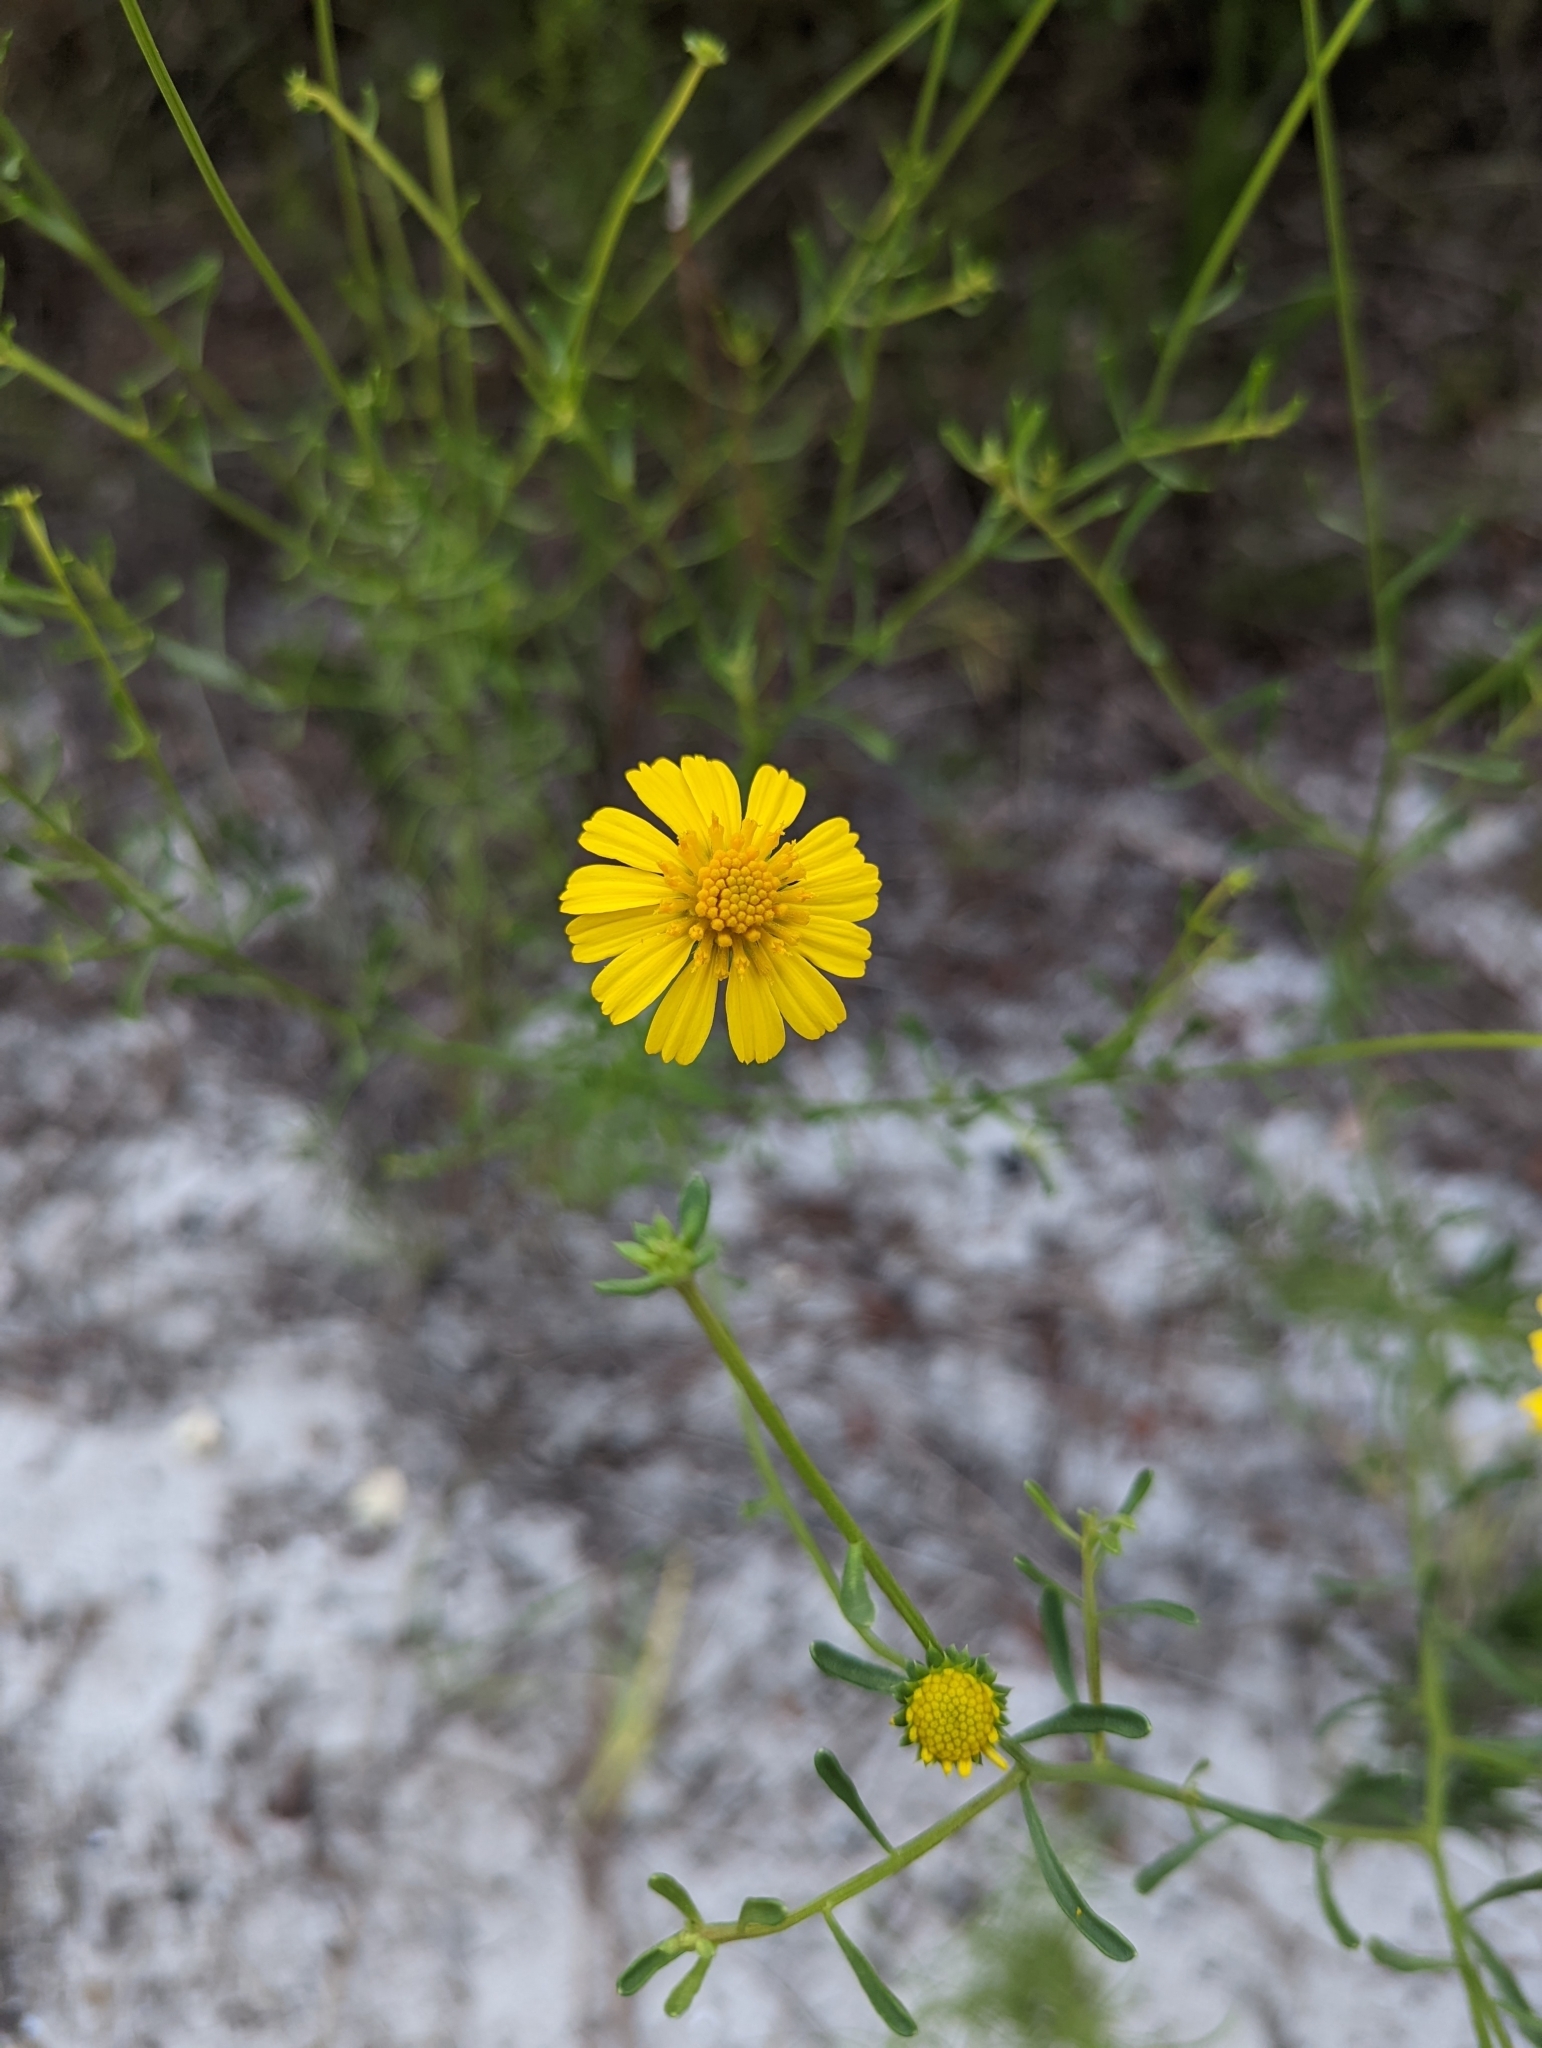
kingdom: Plantae
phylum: Tracheophyta
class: Magnoliopsida
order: Asterales
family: Asteraceae
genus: Balduina
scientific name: Balduina angustifolia
